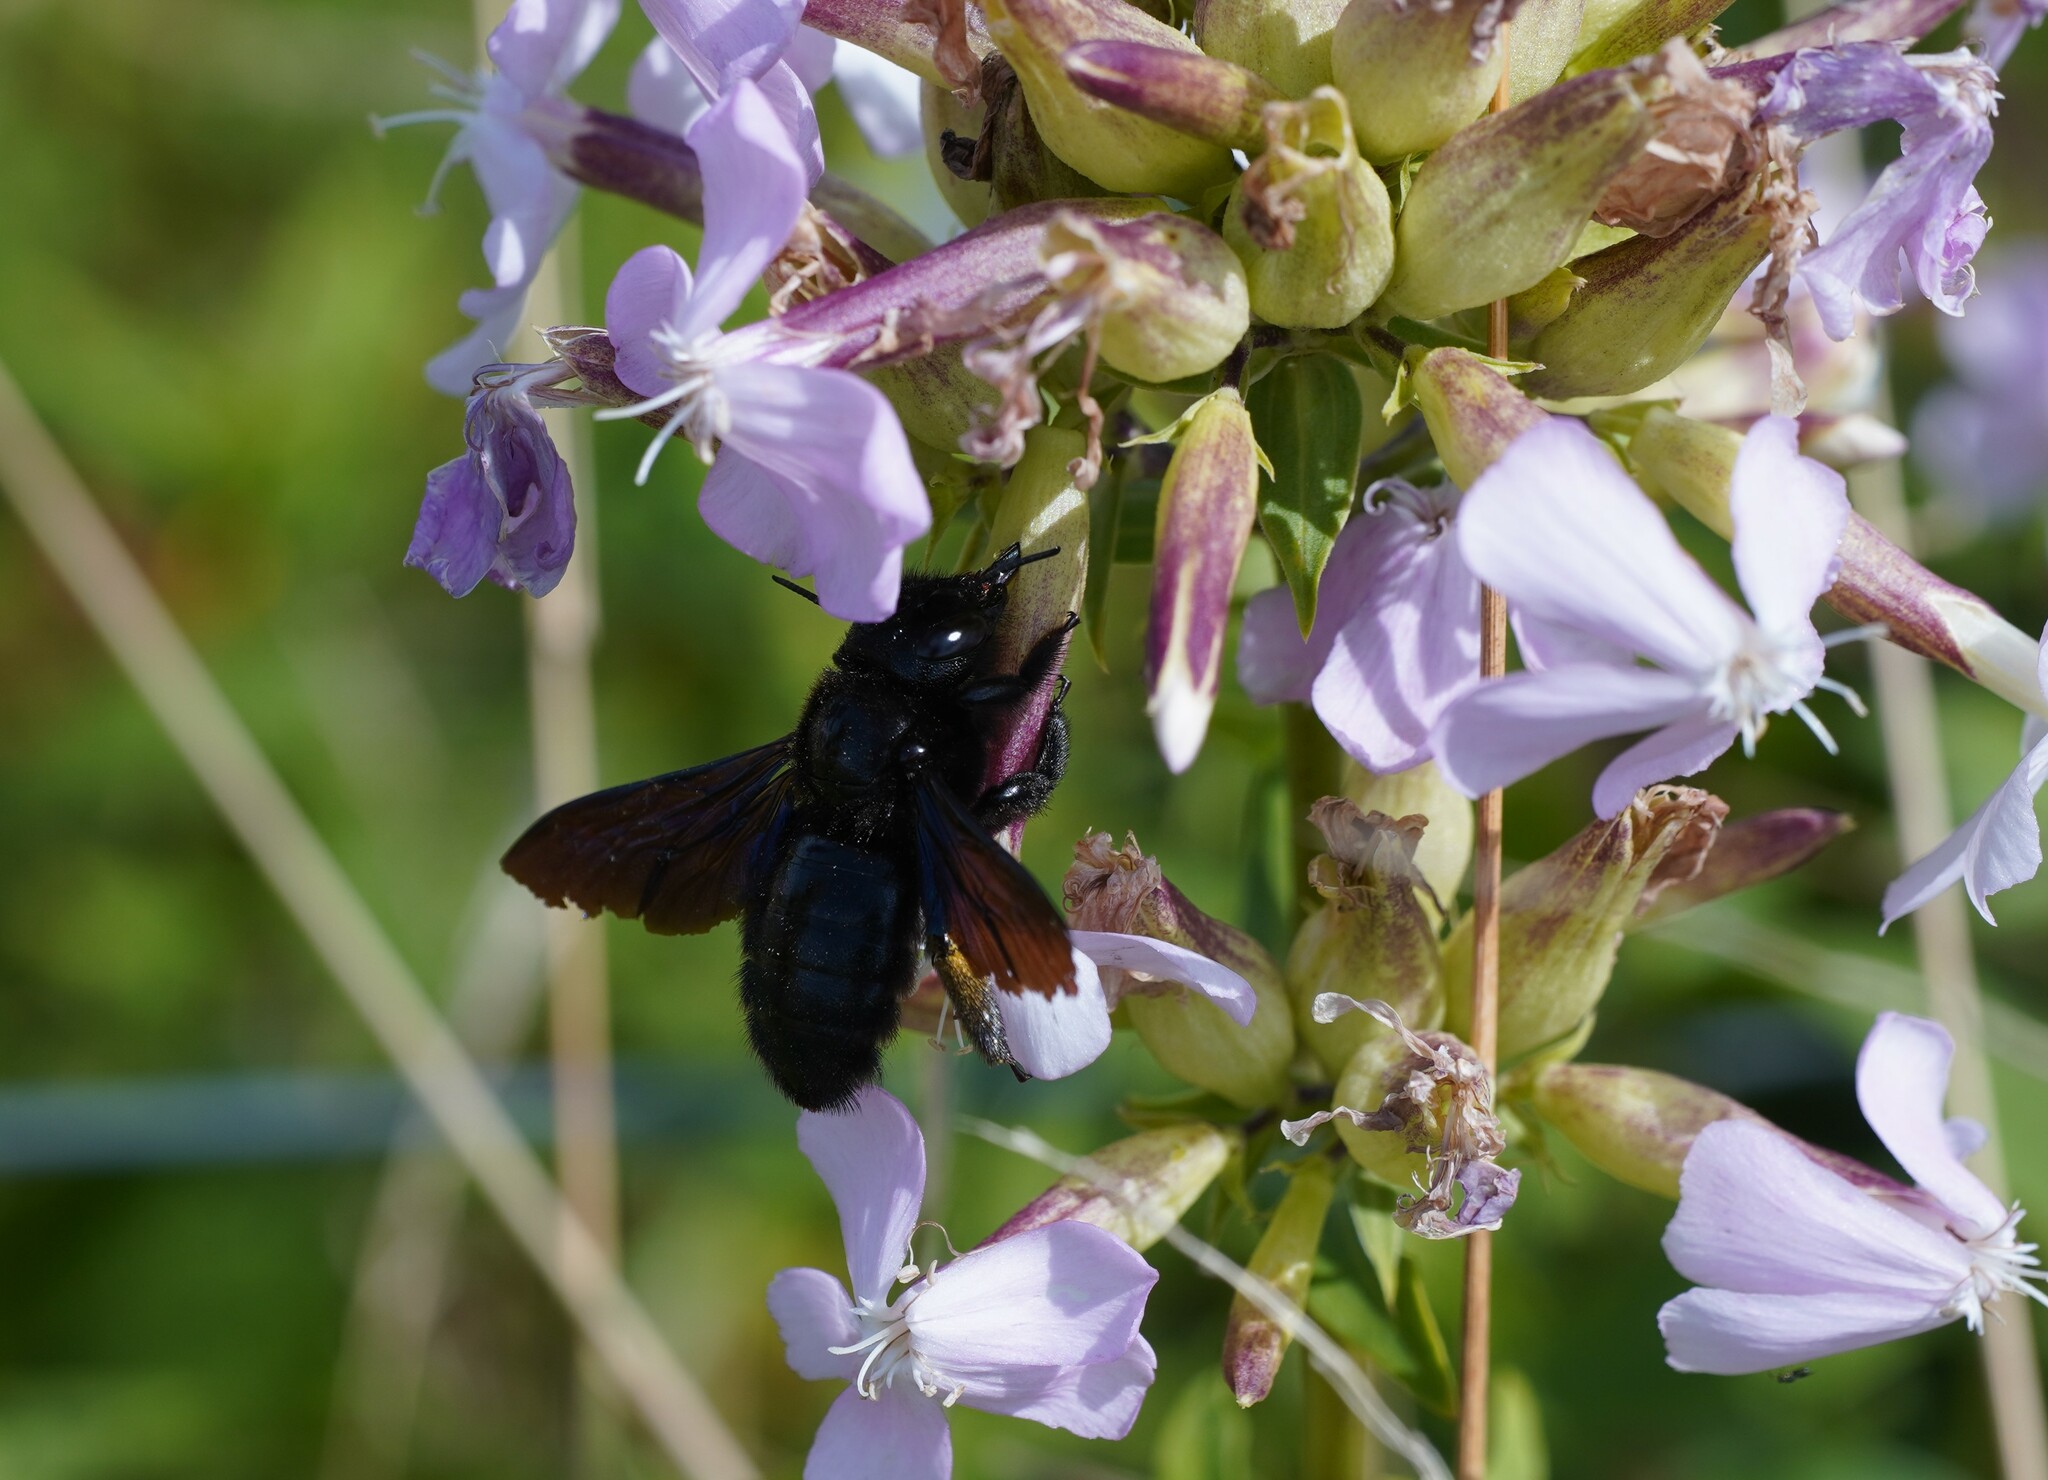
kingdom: Animalia
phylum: Arthropoda
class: Insecta
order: Hymenoptera
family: Apidae
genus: Xylocopa
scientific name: Xylocopa violacea
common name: Violet carpenter bee
